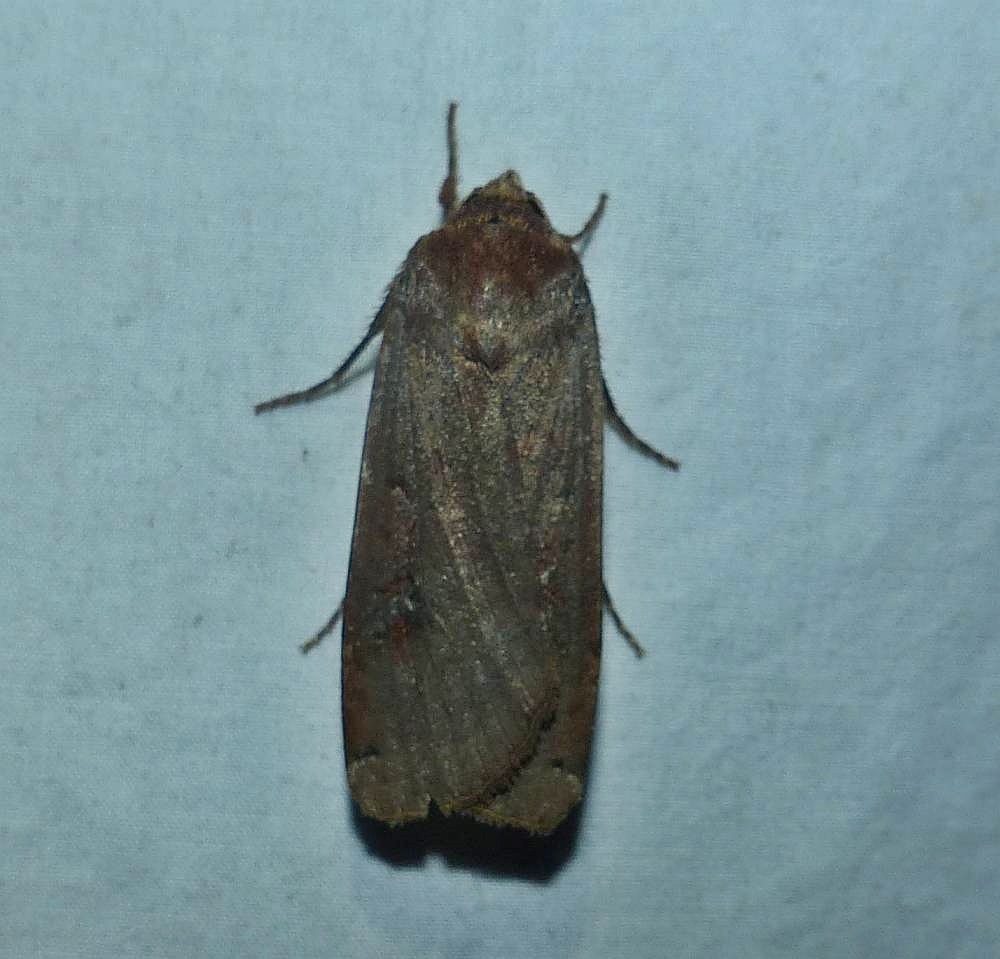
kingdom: Animalia
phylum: Arthropoda
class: Insecta
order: Lepidoptera
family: Noctuidae
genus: Noctua
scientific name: Noctua pronuba
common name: Large yellow underwing
